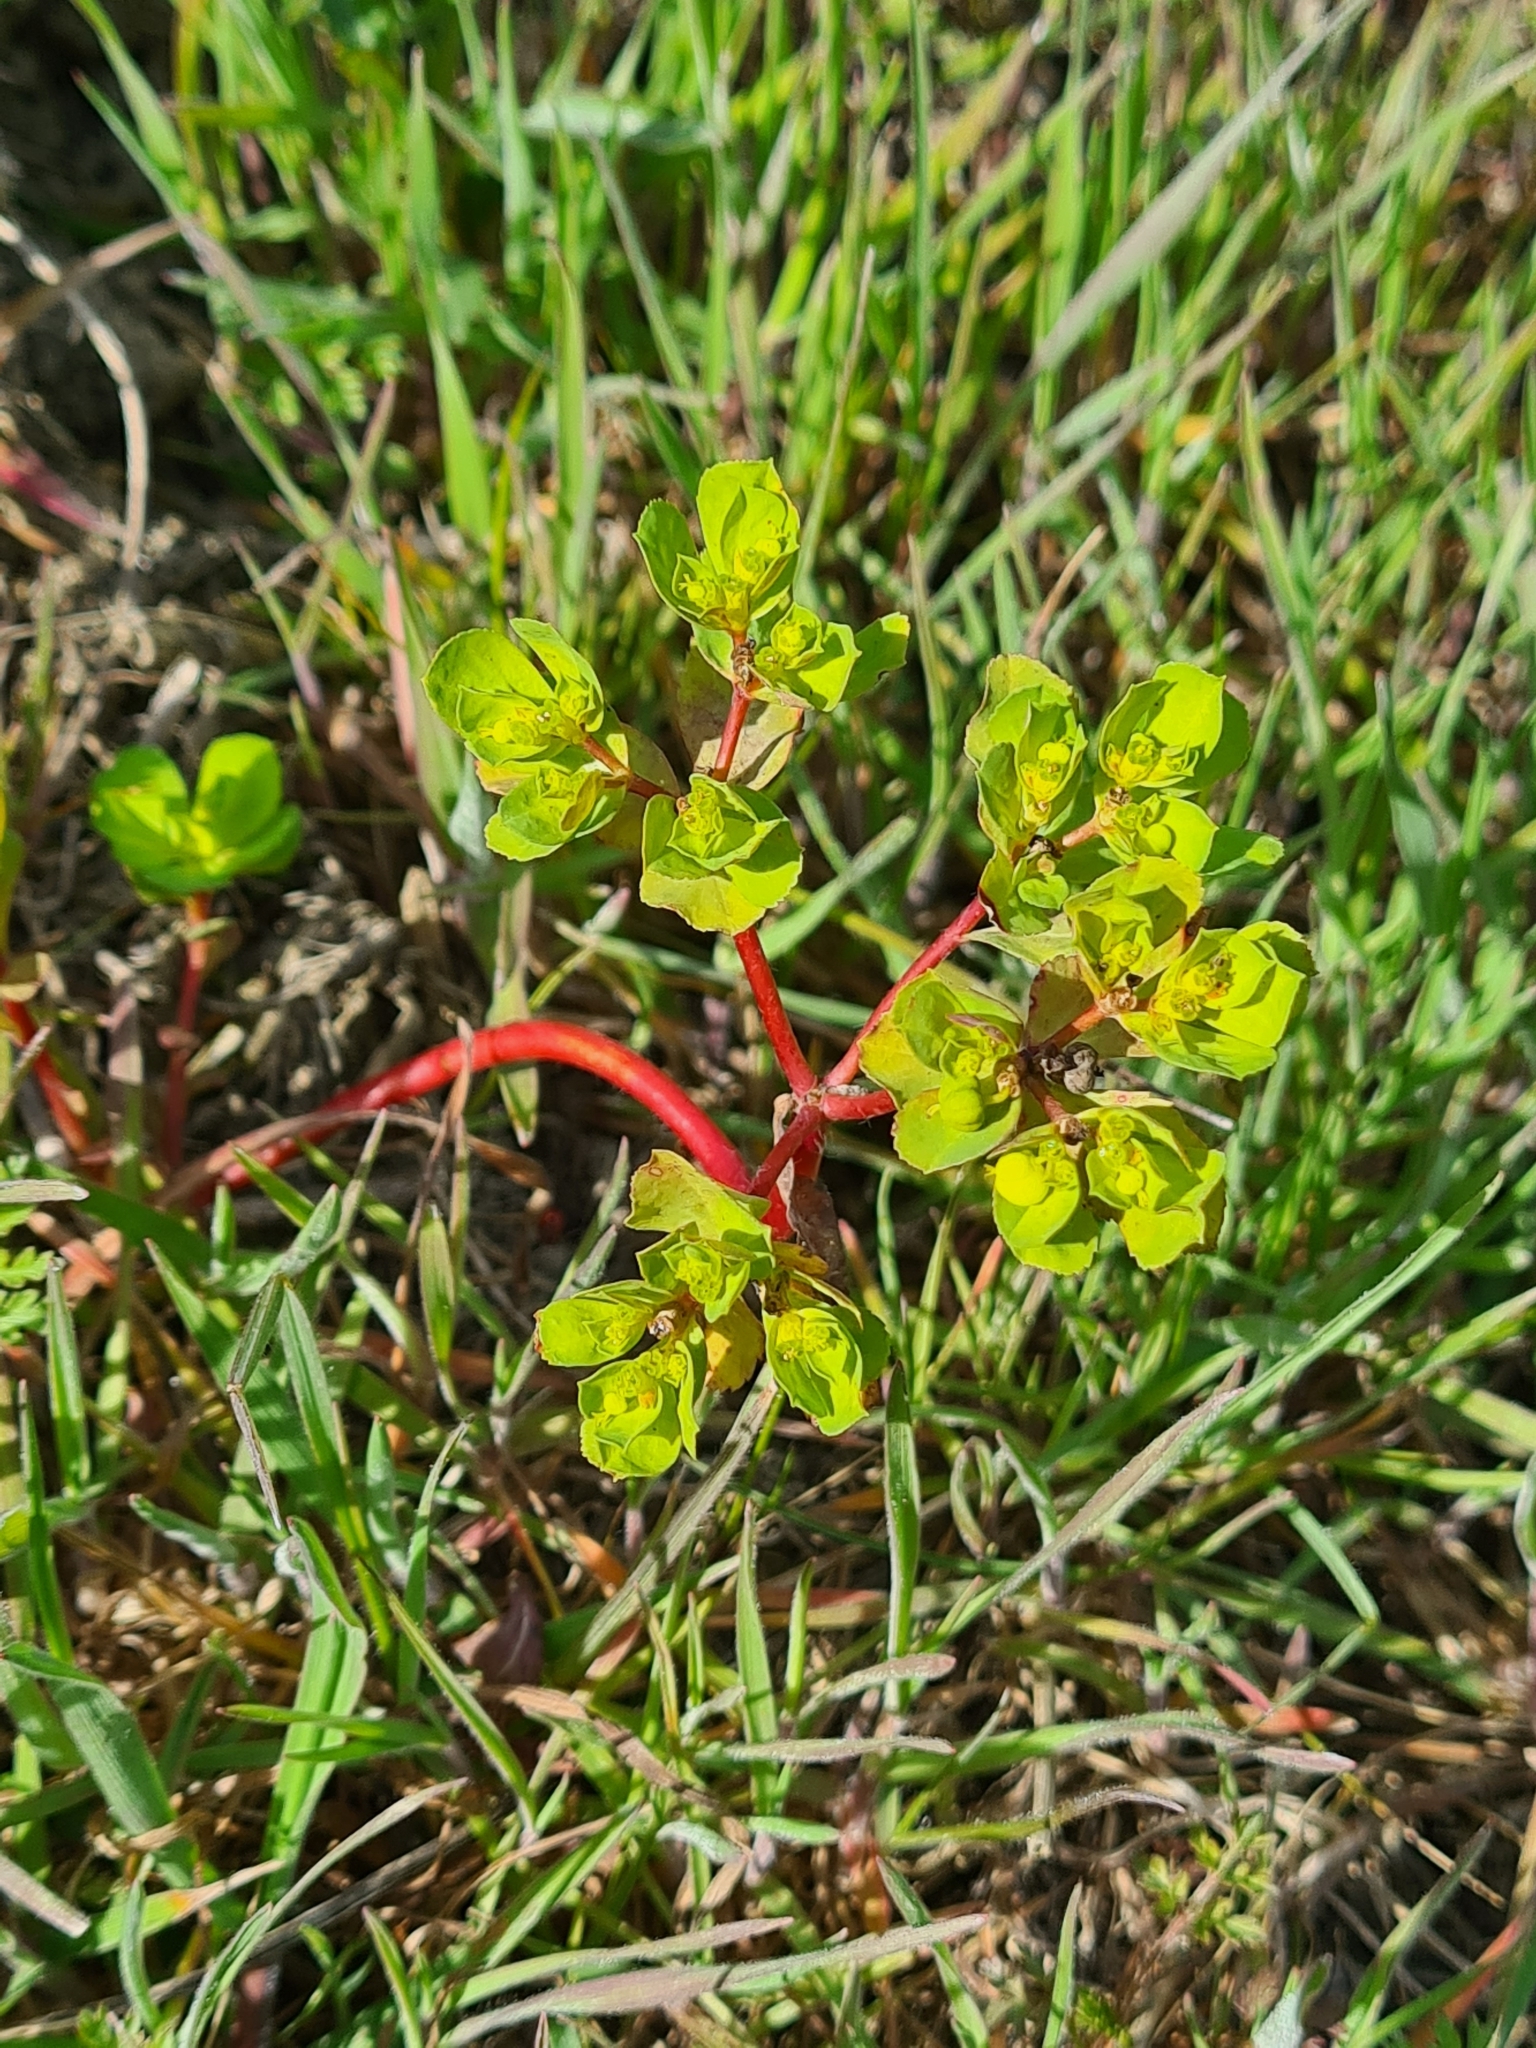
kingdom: Plantae
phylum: Tracheophyta
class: Magnoliopsida
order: Malpighiales
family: Euphorbiaceae
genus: Euphorbia
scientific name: Euphorbia helioscopia
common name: Sun spurge
